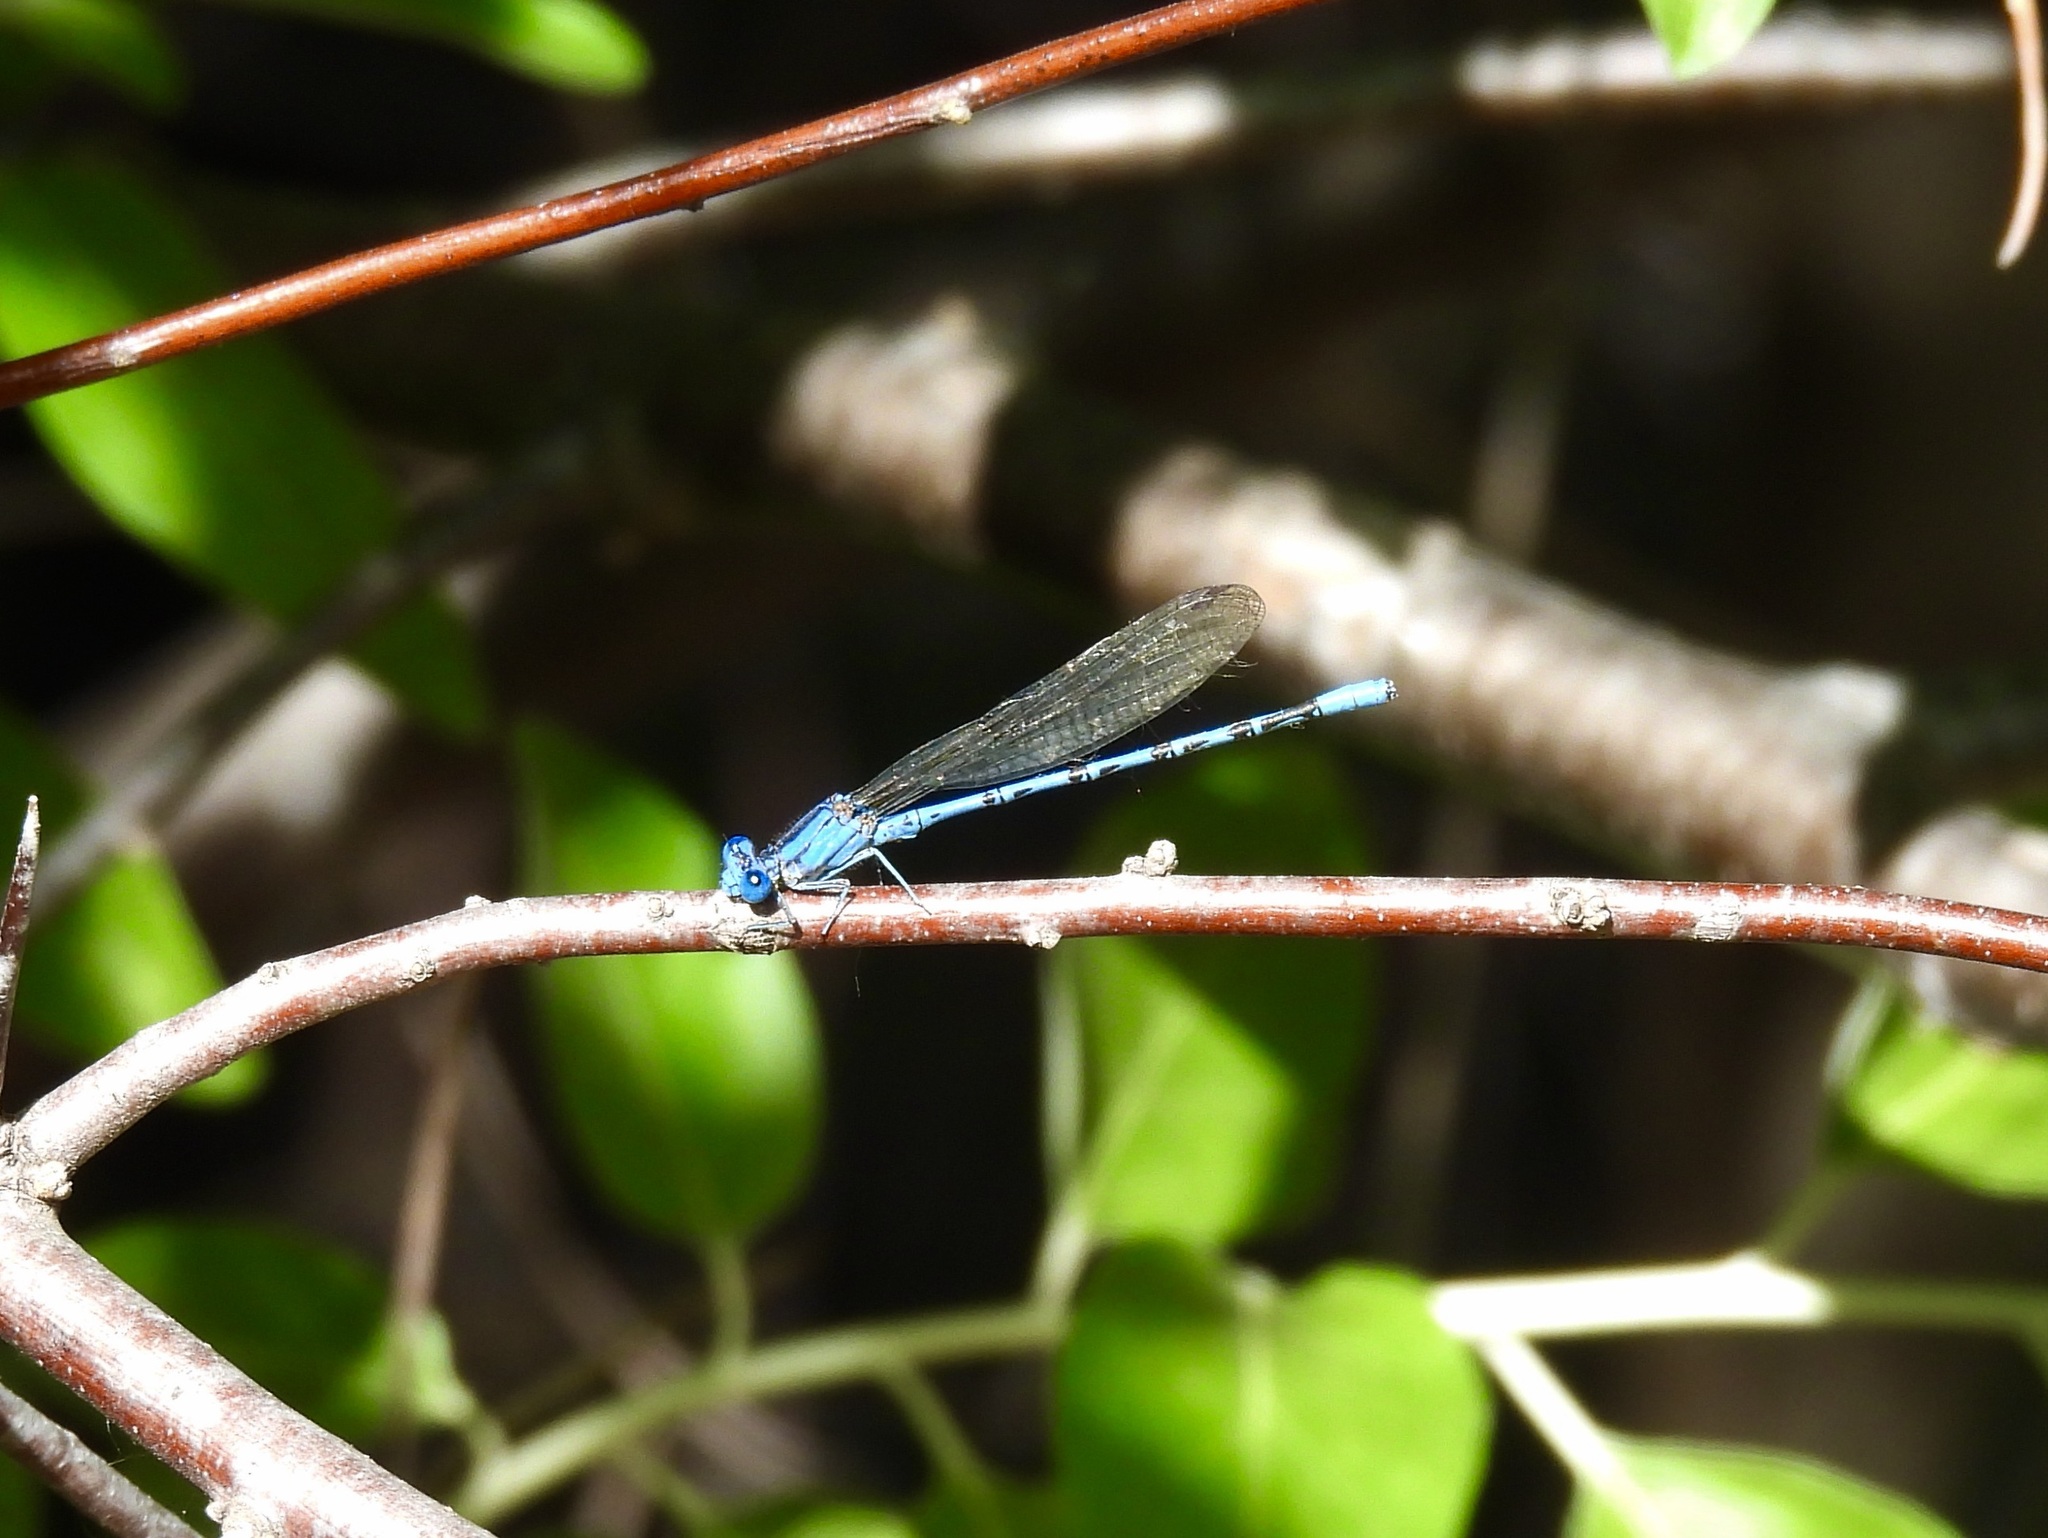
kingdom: Animalia
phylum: Arthropoda
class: Insecta
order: Odonata
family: Coenagrionidae
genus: Argia
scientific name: Argia funebris
